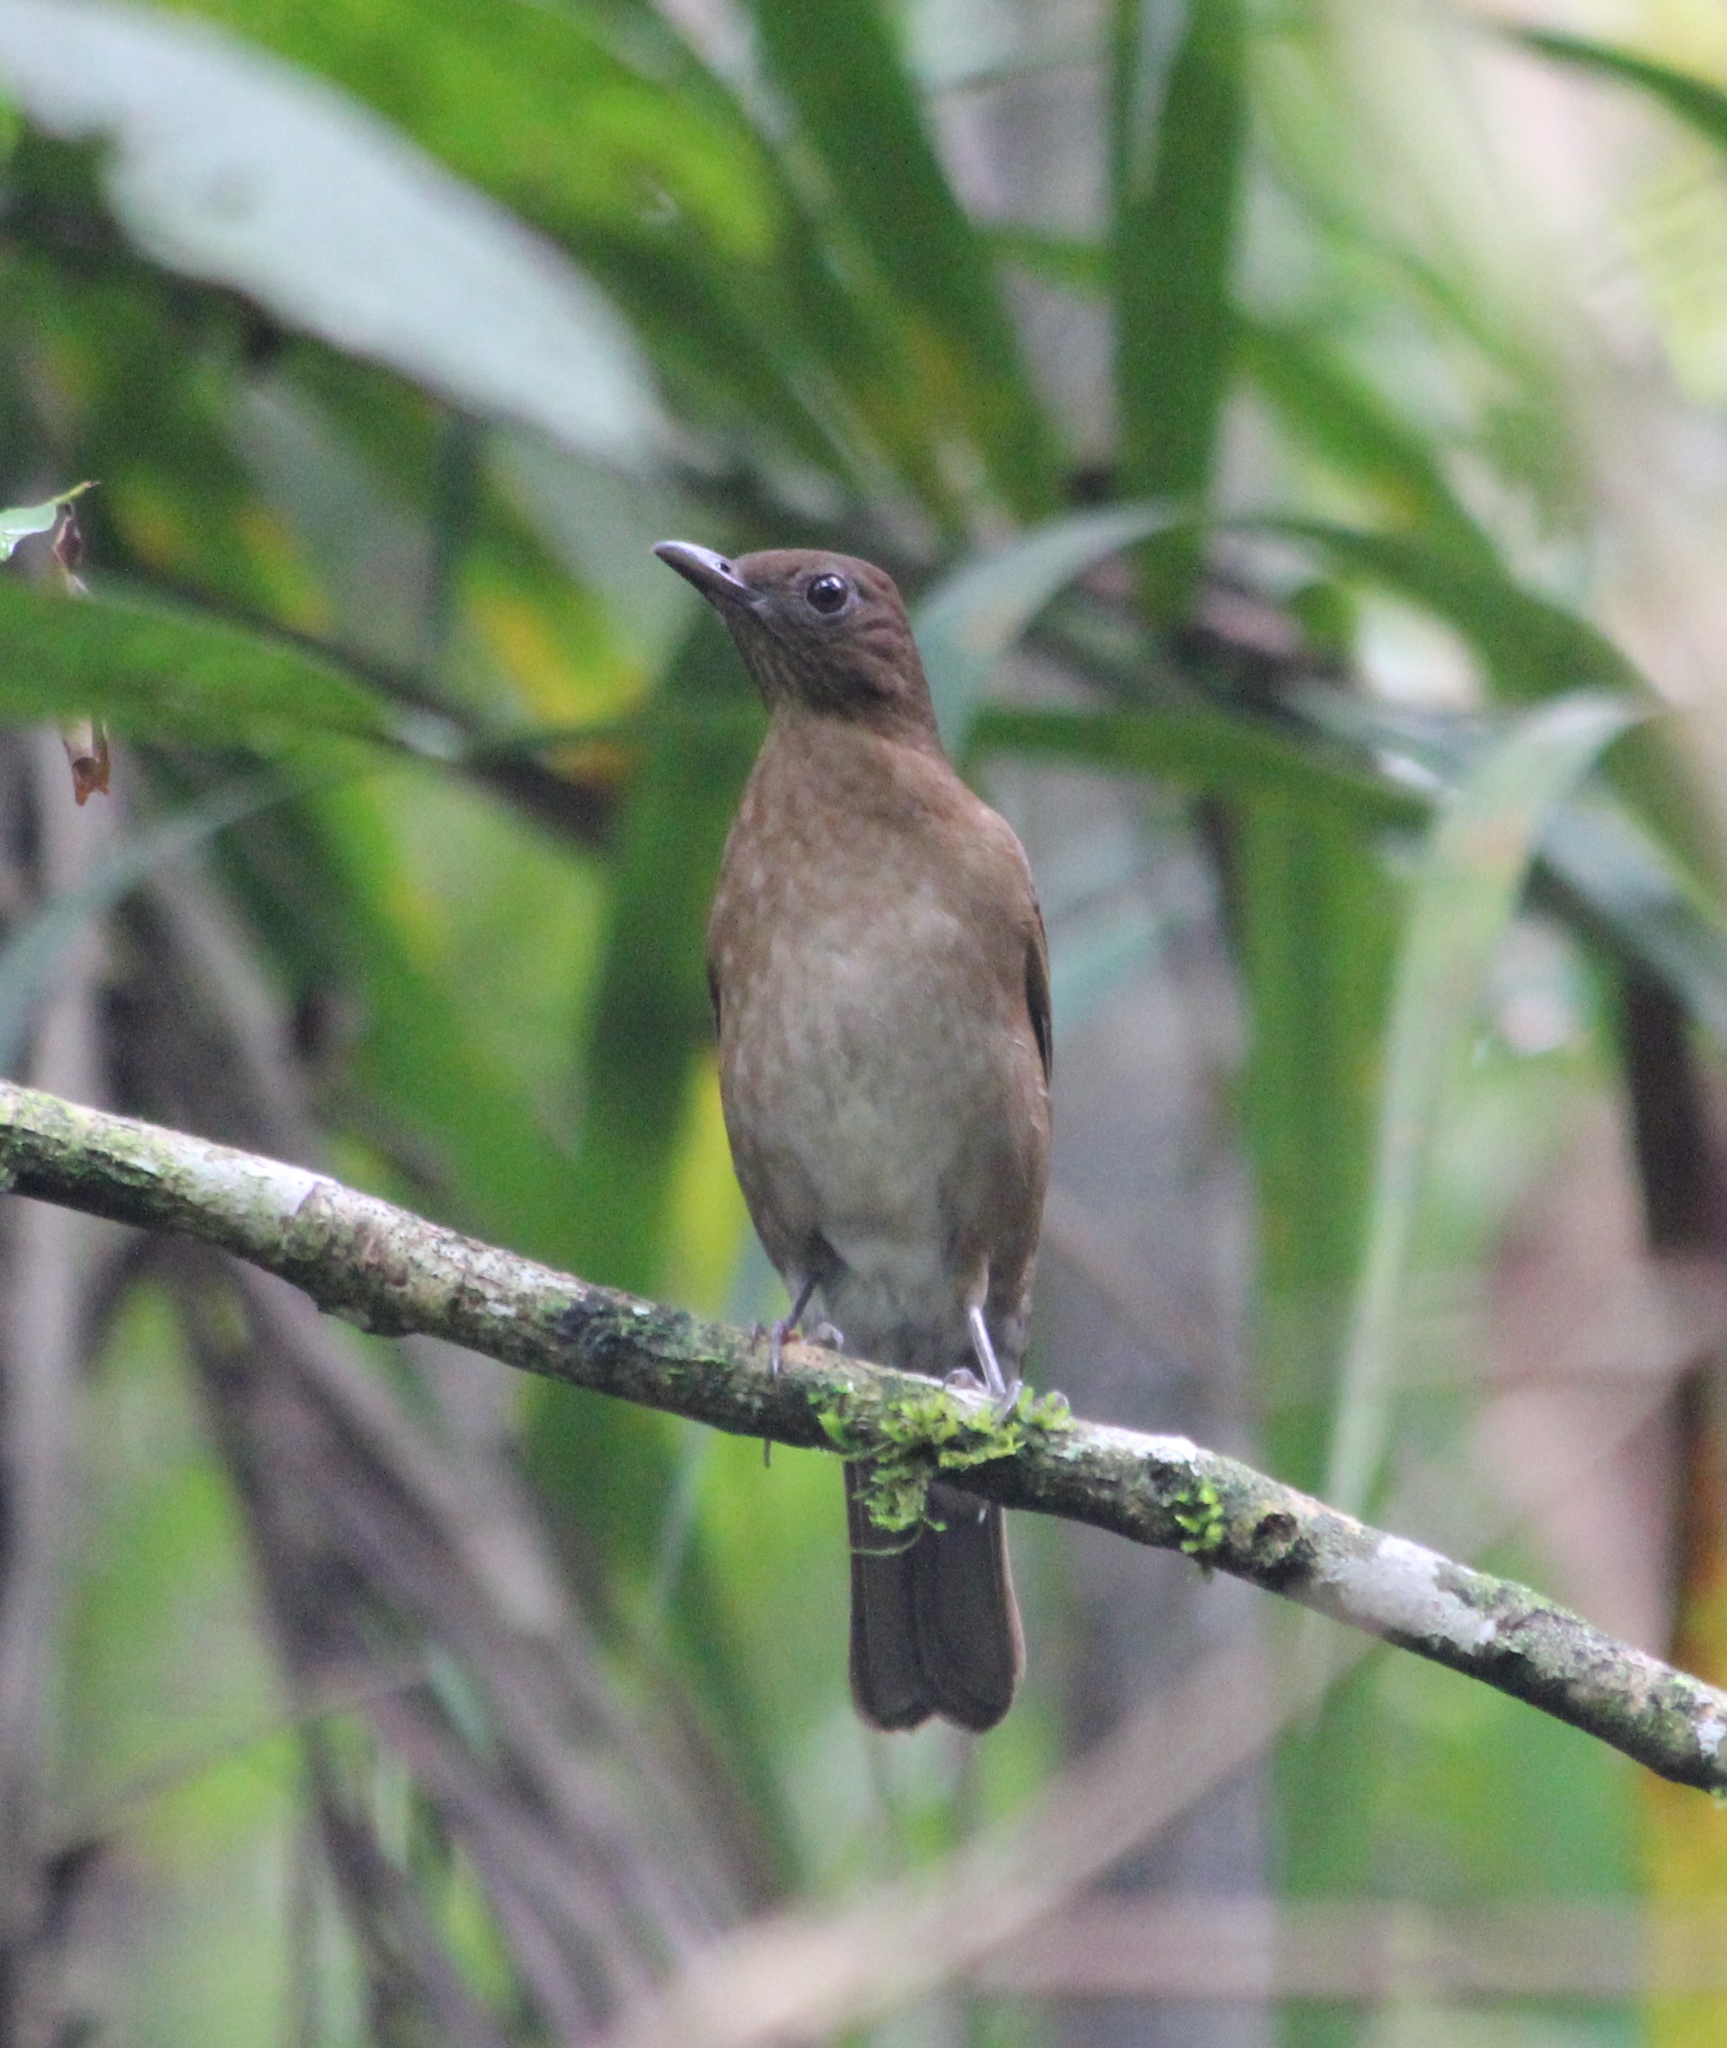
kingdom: Animalia
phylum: Chordata
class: Aves
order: Passeriformes
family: Turdidae
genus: Turdus
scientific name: Turdus hauxwelli
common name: Hauxwell's thrush
